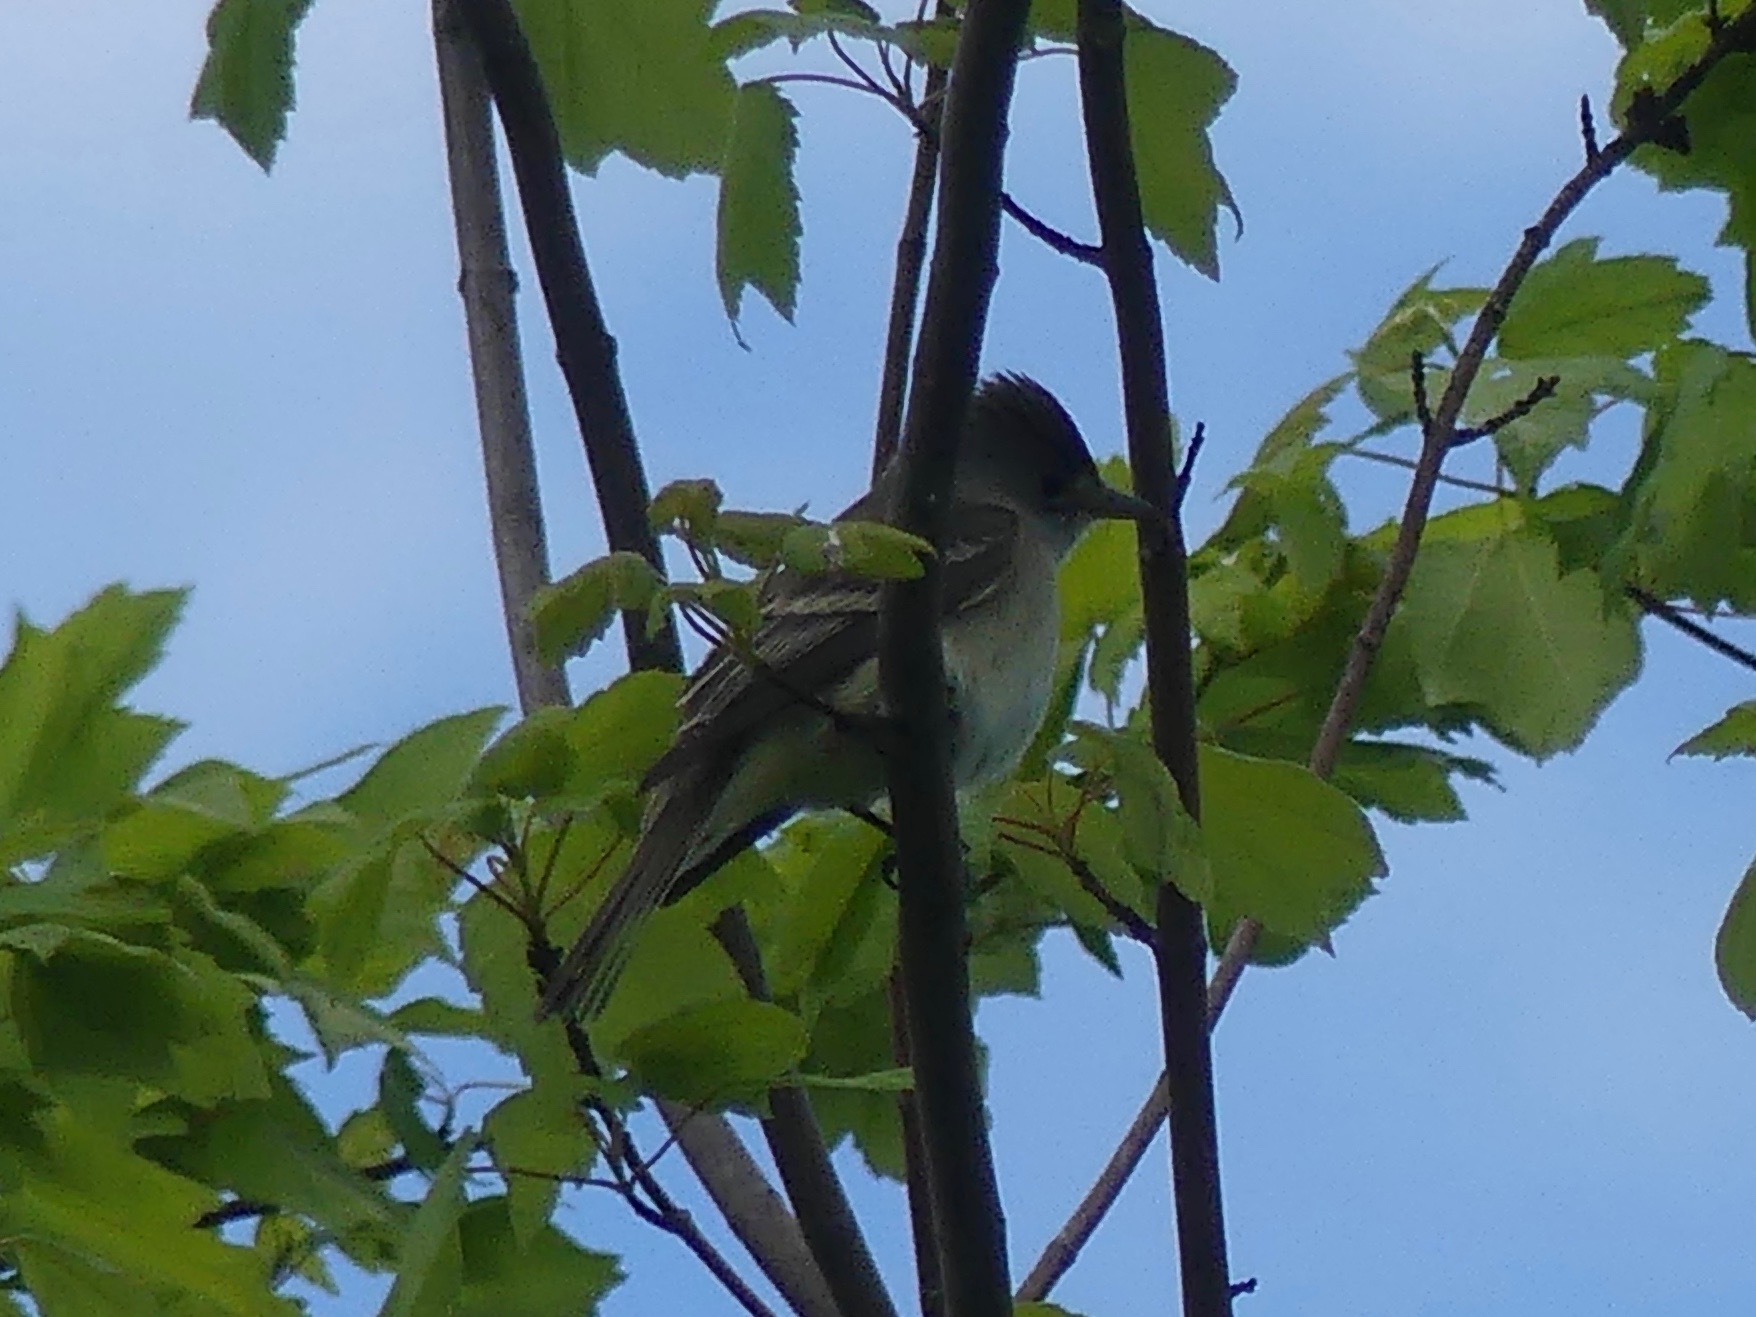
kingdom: Animalia
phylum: Chordata
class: Aves
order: Passeriformes
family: Tyrannidae
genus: Empidonax
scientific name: Empidonax traillii
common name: Willow flycatcher
